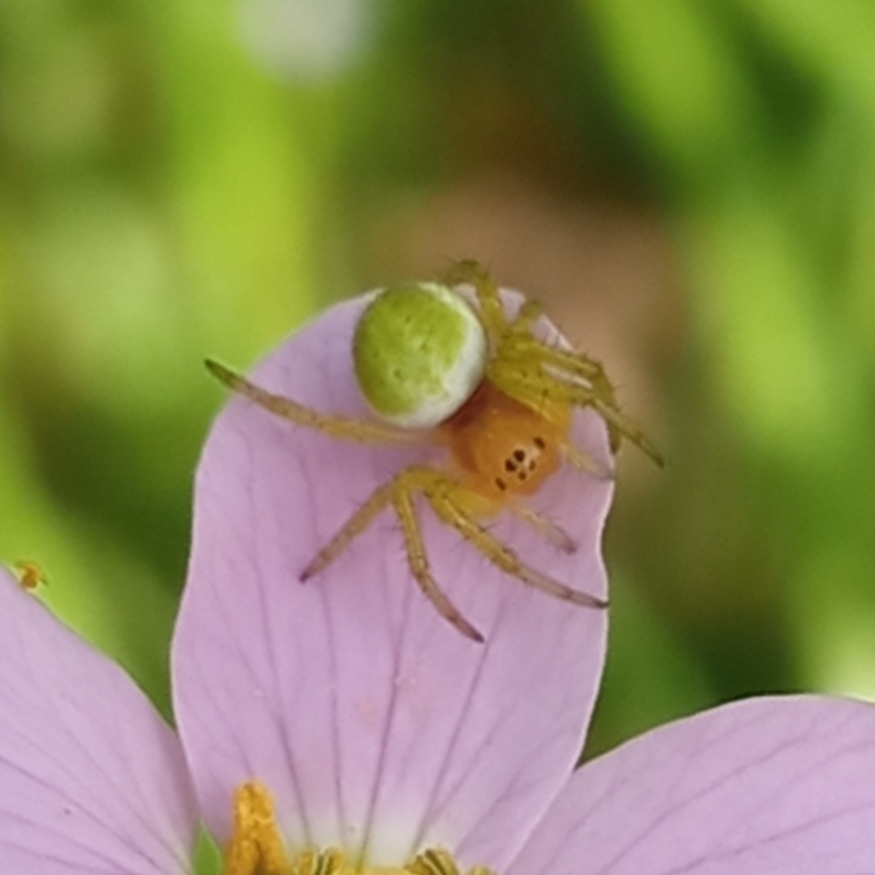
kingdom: Animalia
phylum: Arthropoda
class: Arachnida
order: Araneae
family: Araneidae
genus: Araniella
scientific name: Araniella
